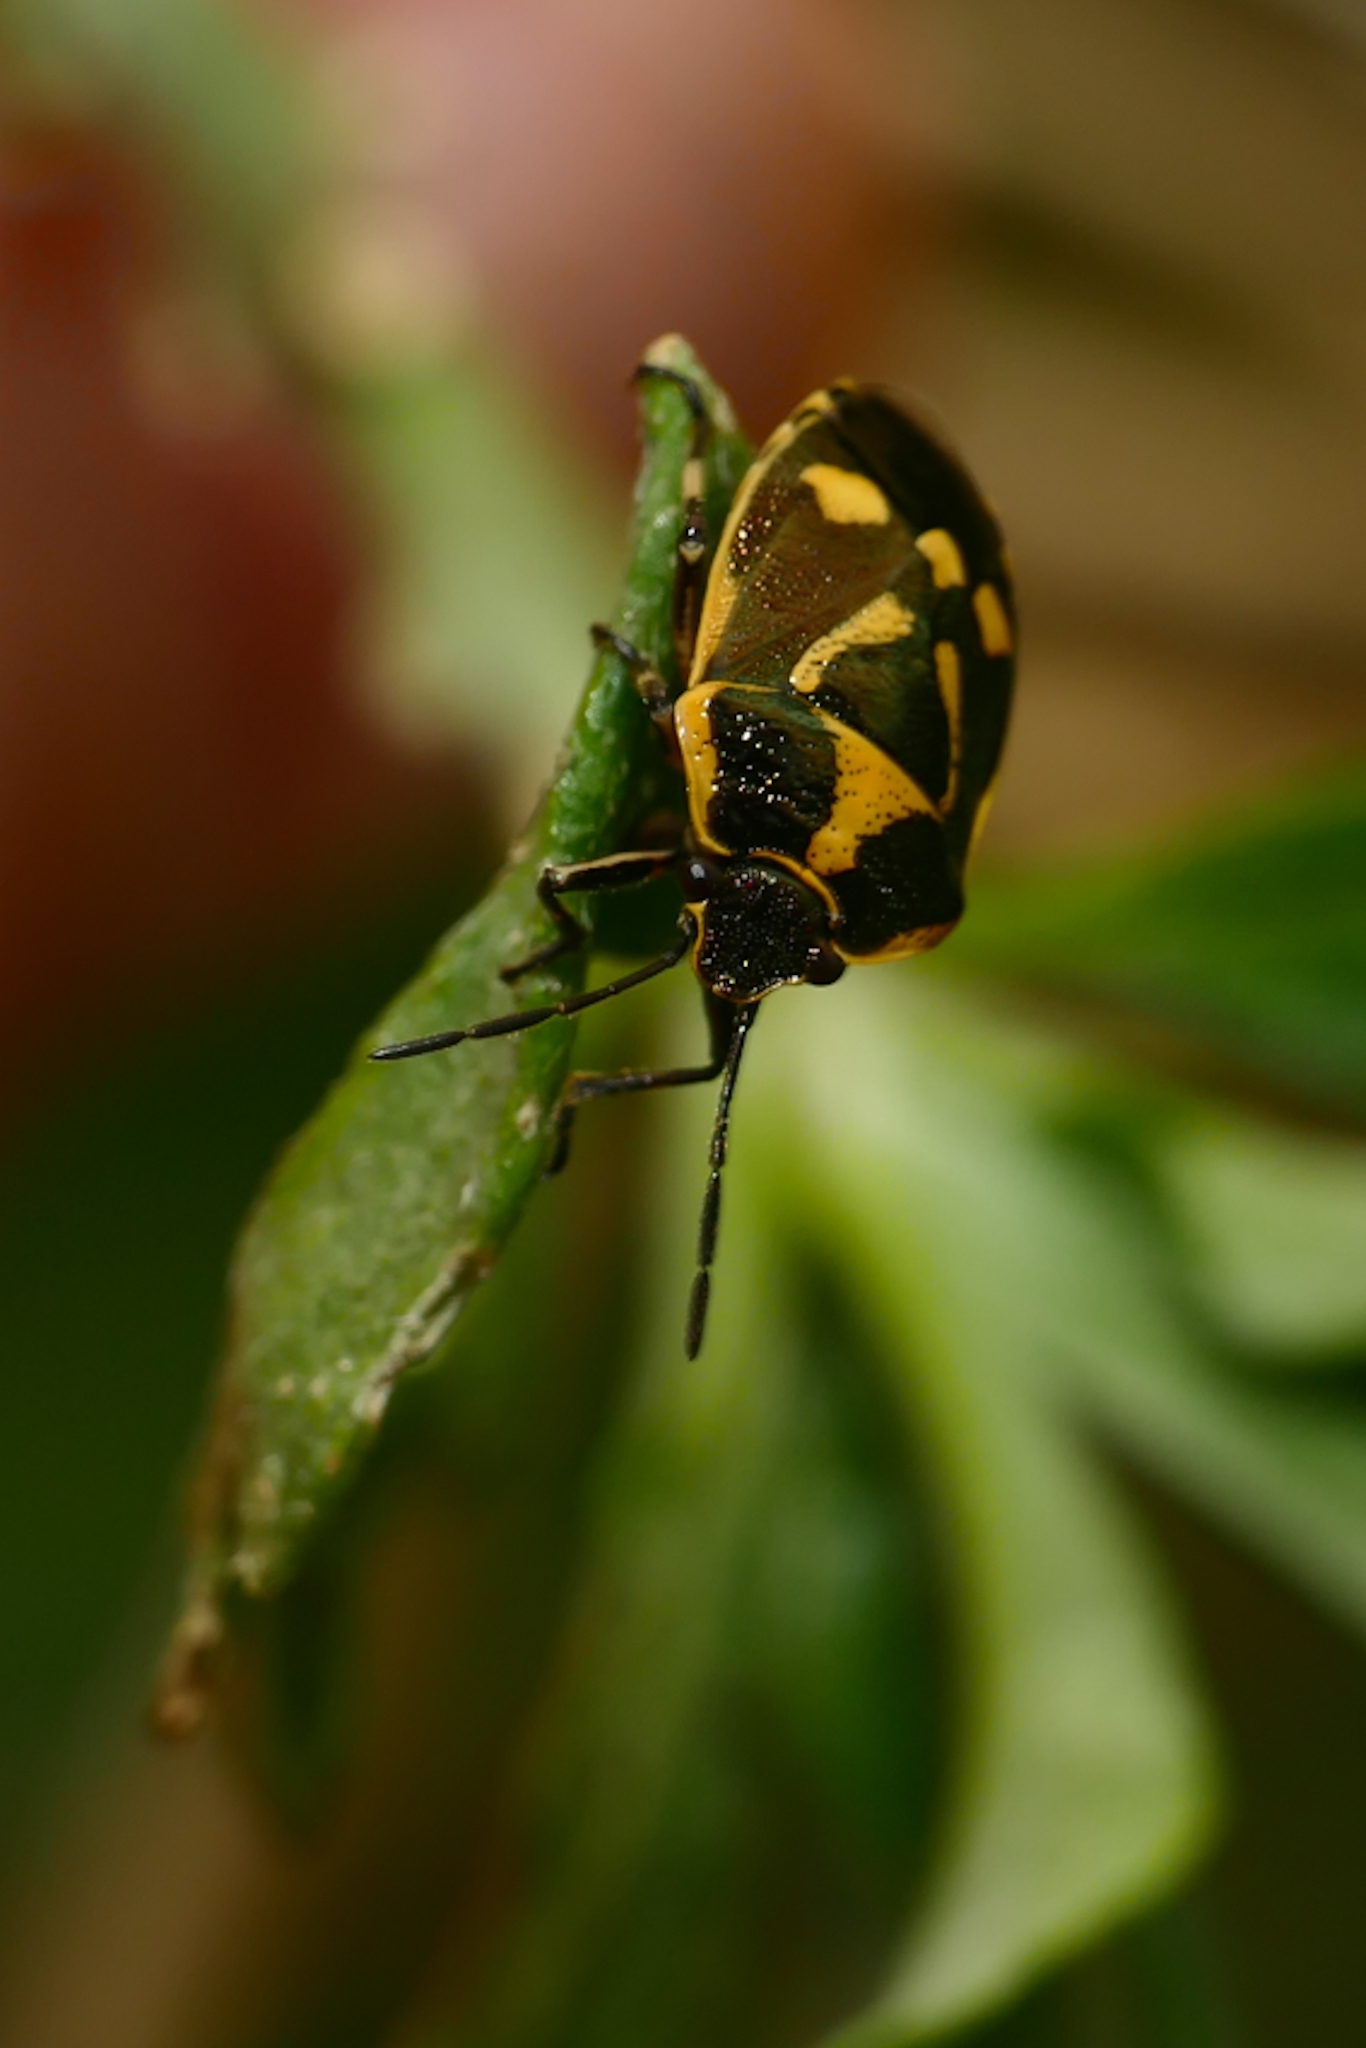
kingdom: Animalia
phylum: Arthropoda
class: Insecta
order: Hemiptera
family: Pentatomidae
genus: Eurydema
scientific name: Eurydema oleracea
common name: Cabbage bug
